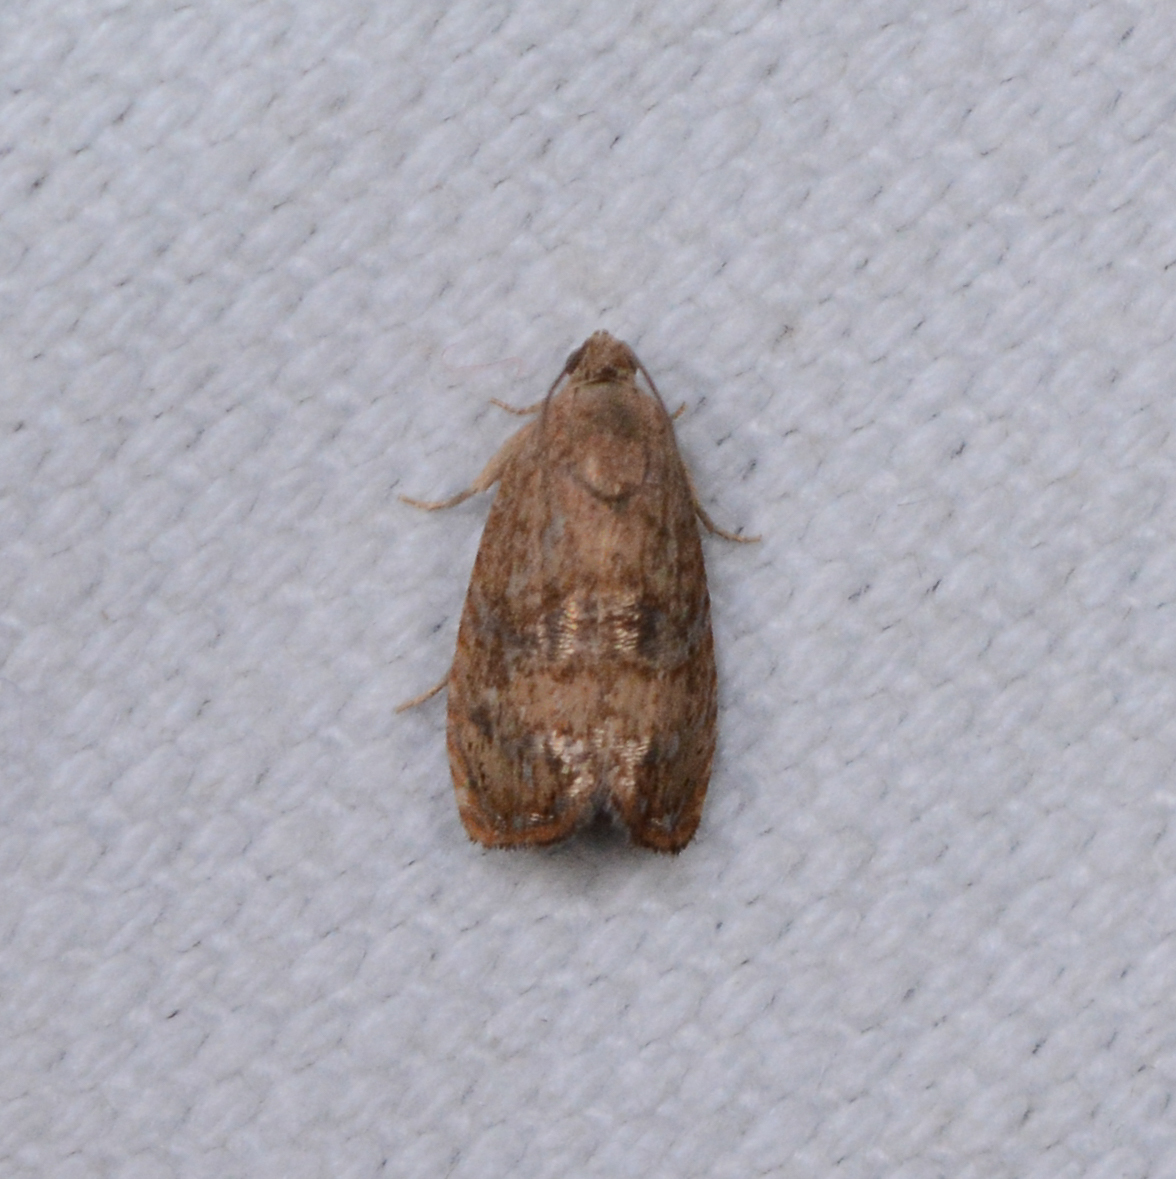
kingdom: Animalia
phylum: Arthropoda
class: Insecta
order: Lepidoptera
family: Tortricidae
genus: Cydia
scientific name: Cydia latiferreana
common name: Filbertworm moth
